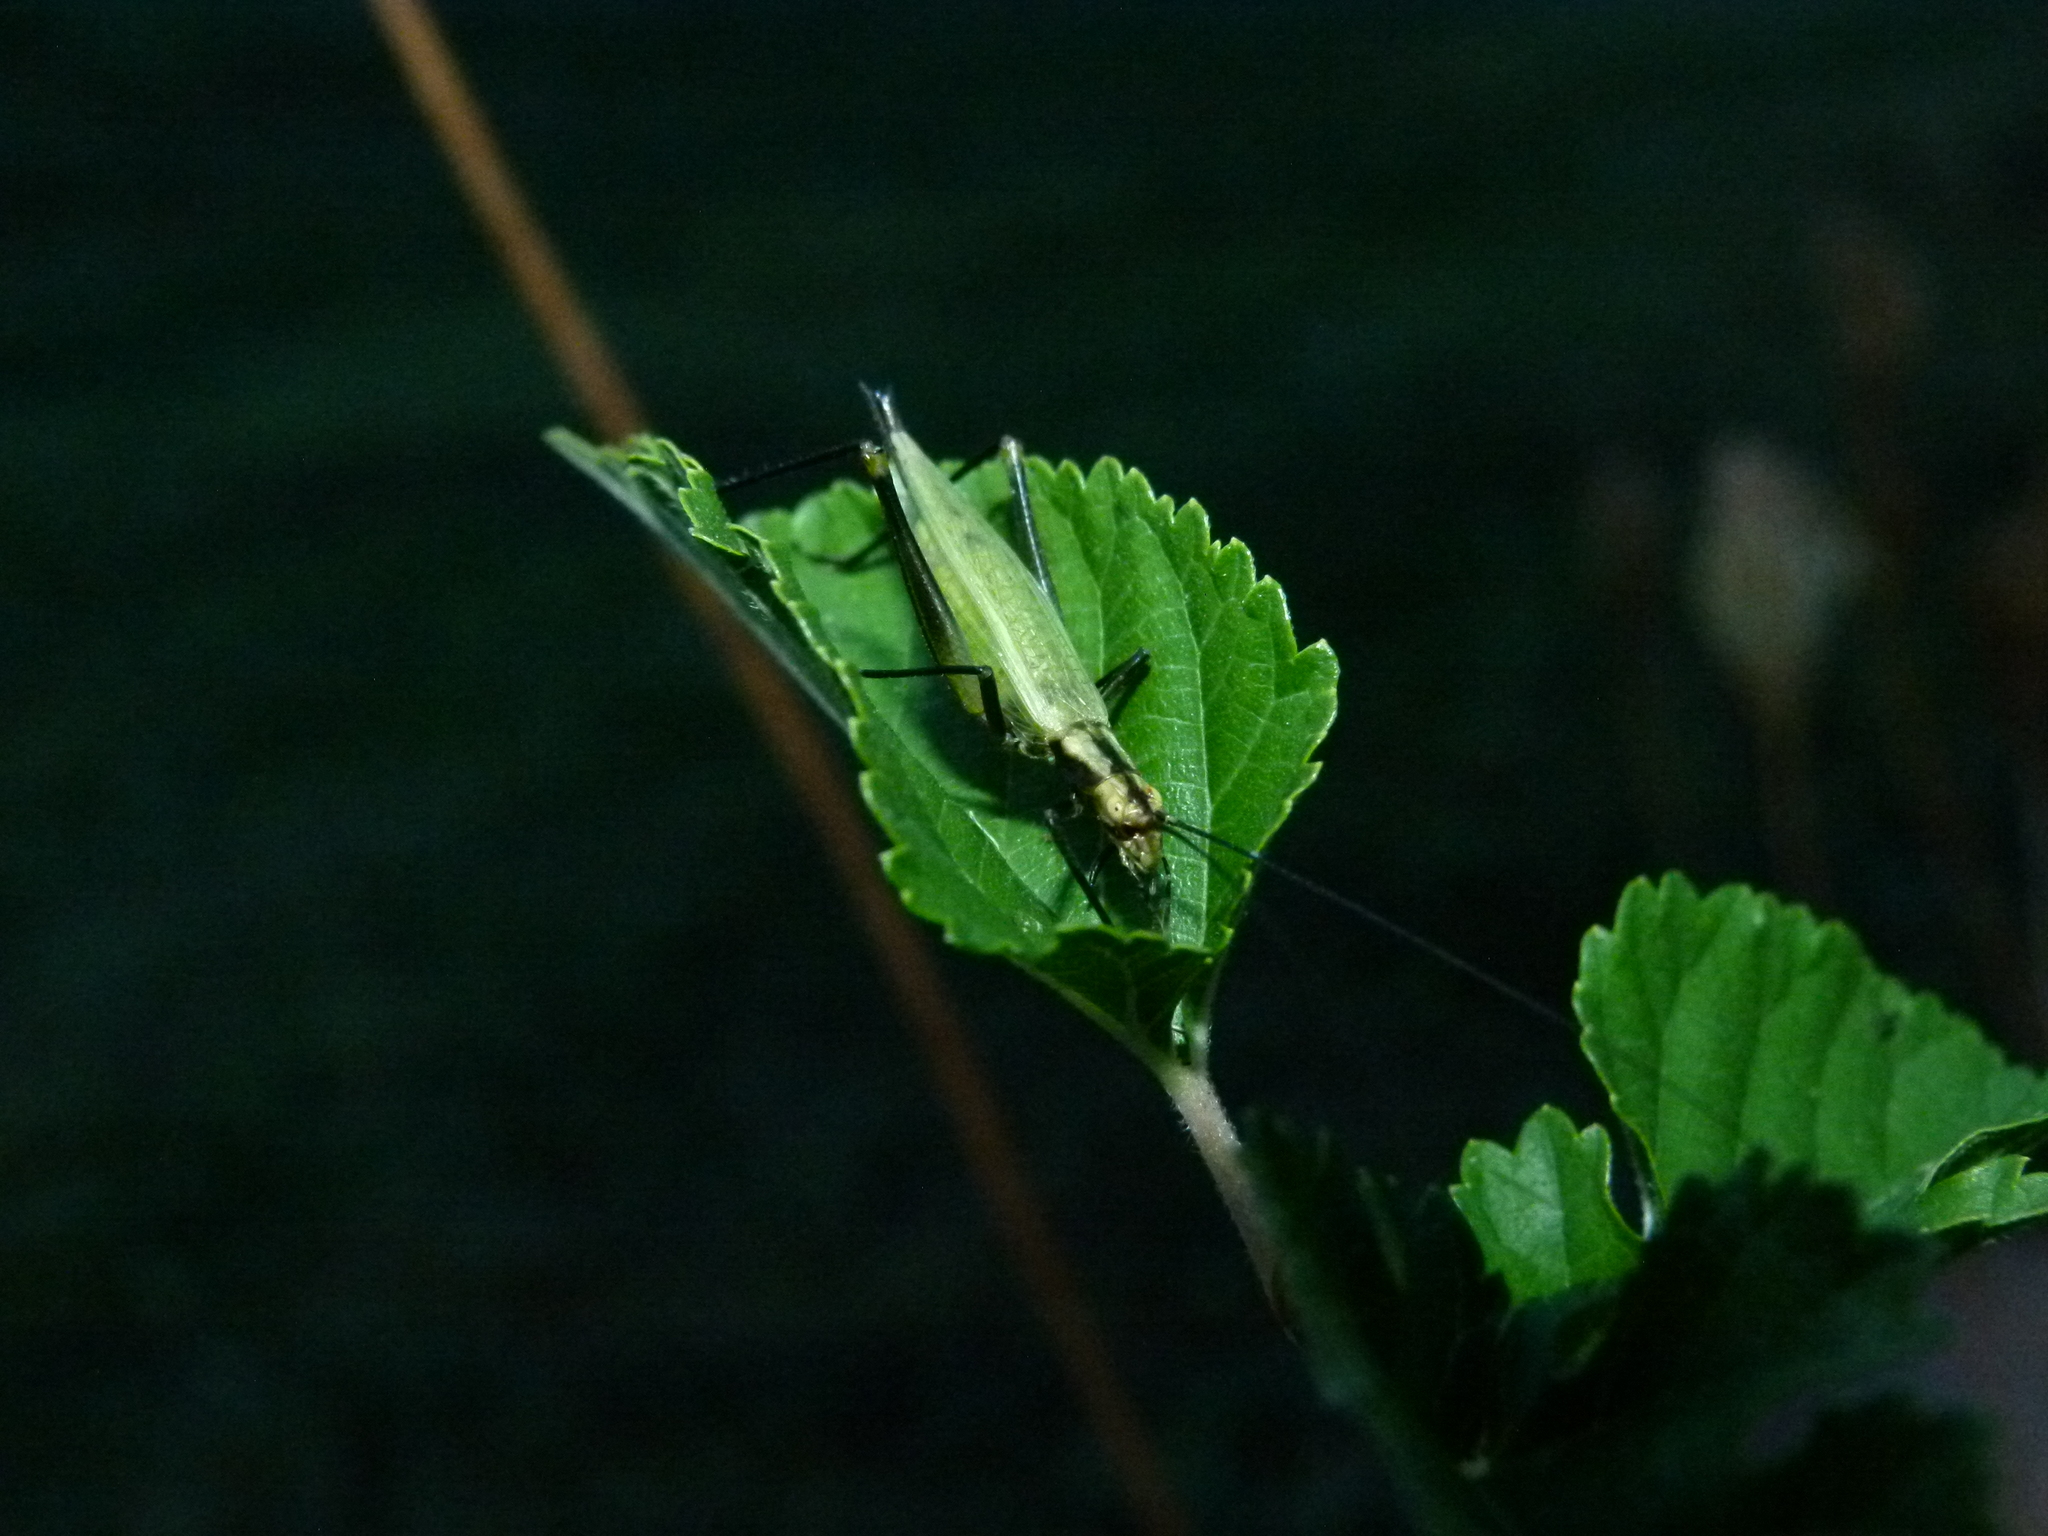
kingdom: Animalia
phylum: Arthropoda
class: Insecta
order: Orthoptera
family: Gryllidae
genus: Oecanthus
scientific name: Oecanthus nigricornis
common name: Black-horned tree cricket
